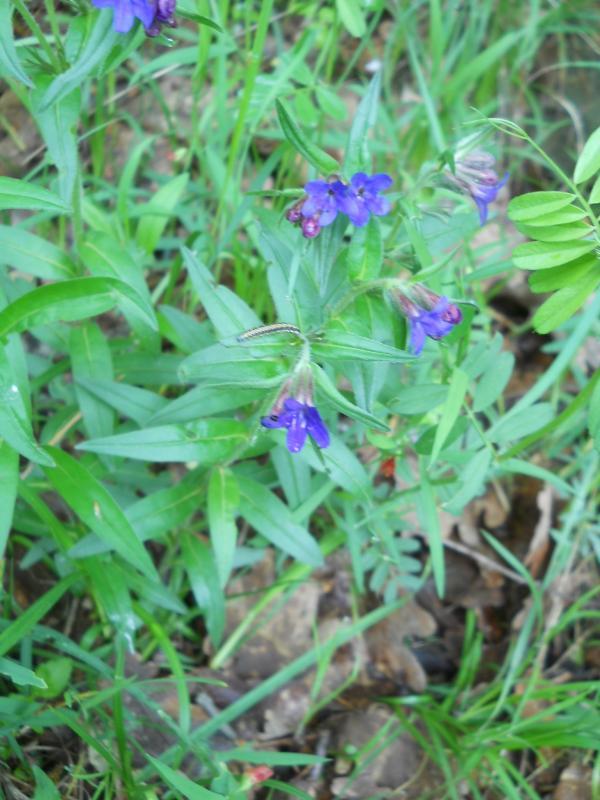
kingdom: Plantae
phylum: Tracheophyta
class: Magnoliopsida
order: Boraginales
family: Boraginaceae
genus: Aegonychon
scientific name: Aegonychon purpurocaeruleum
